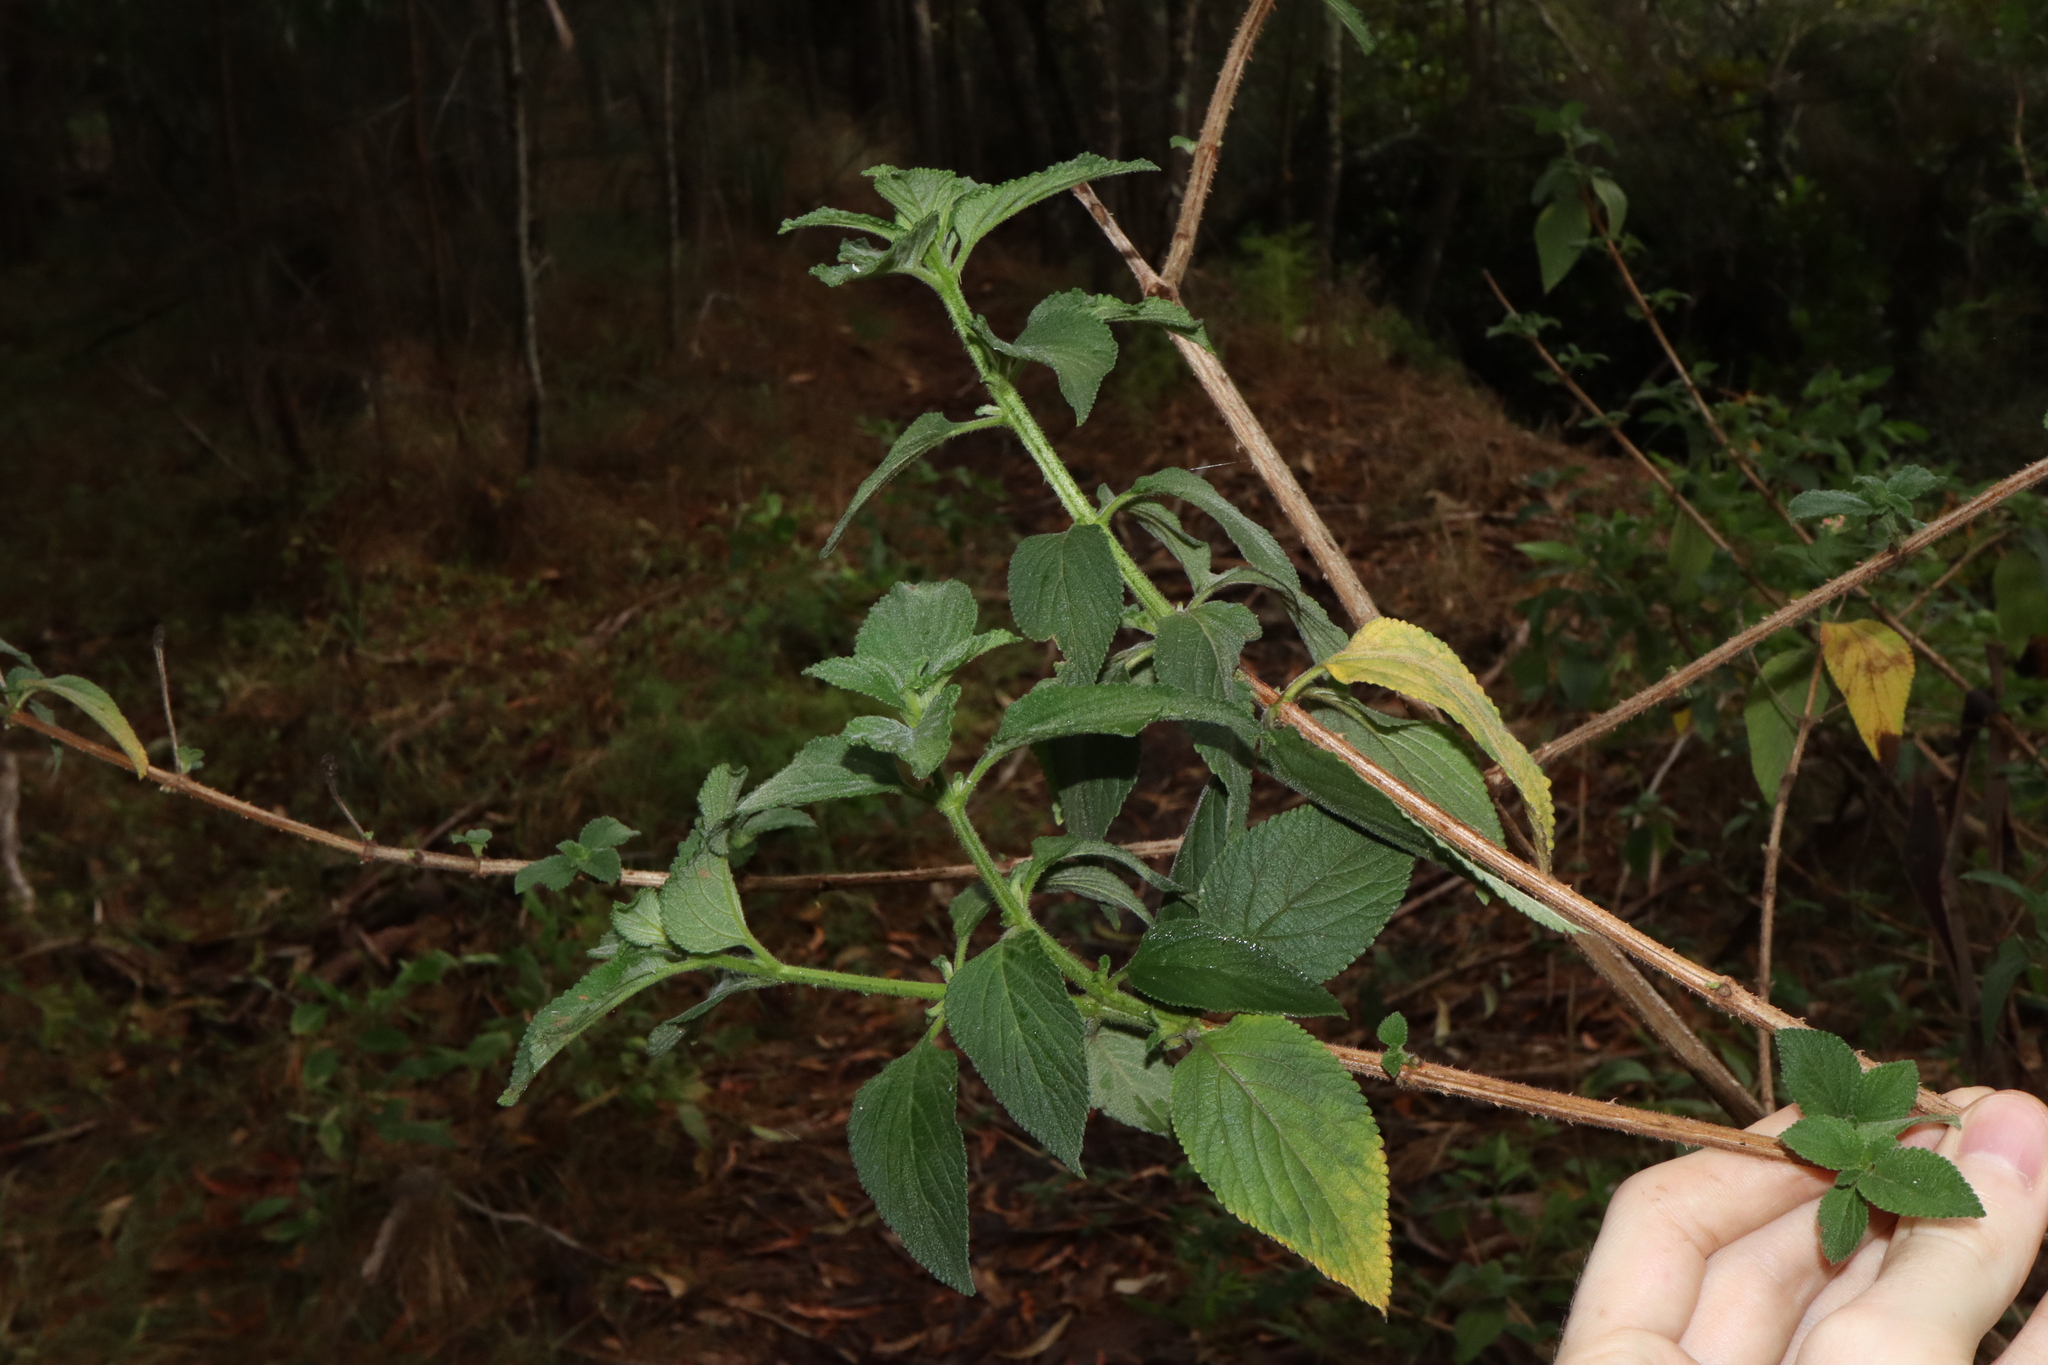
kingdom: Plantae
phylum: Tracheophyta
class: Magnoliopsida
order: Lamiales
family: Verbenaceae
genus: Lantana
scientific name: Lantana camara
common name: Lantana
